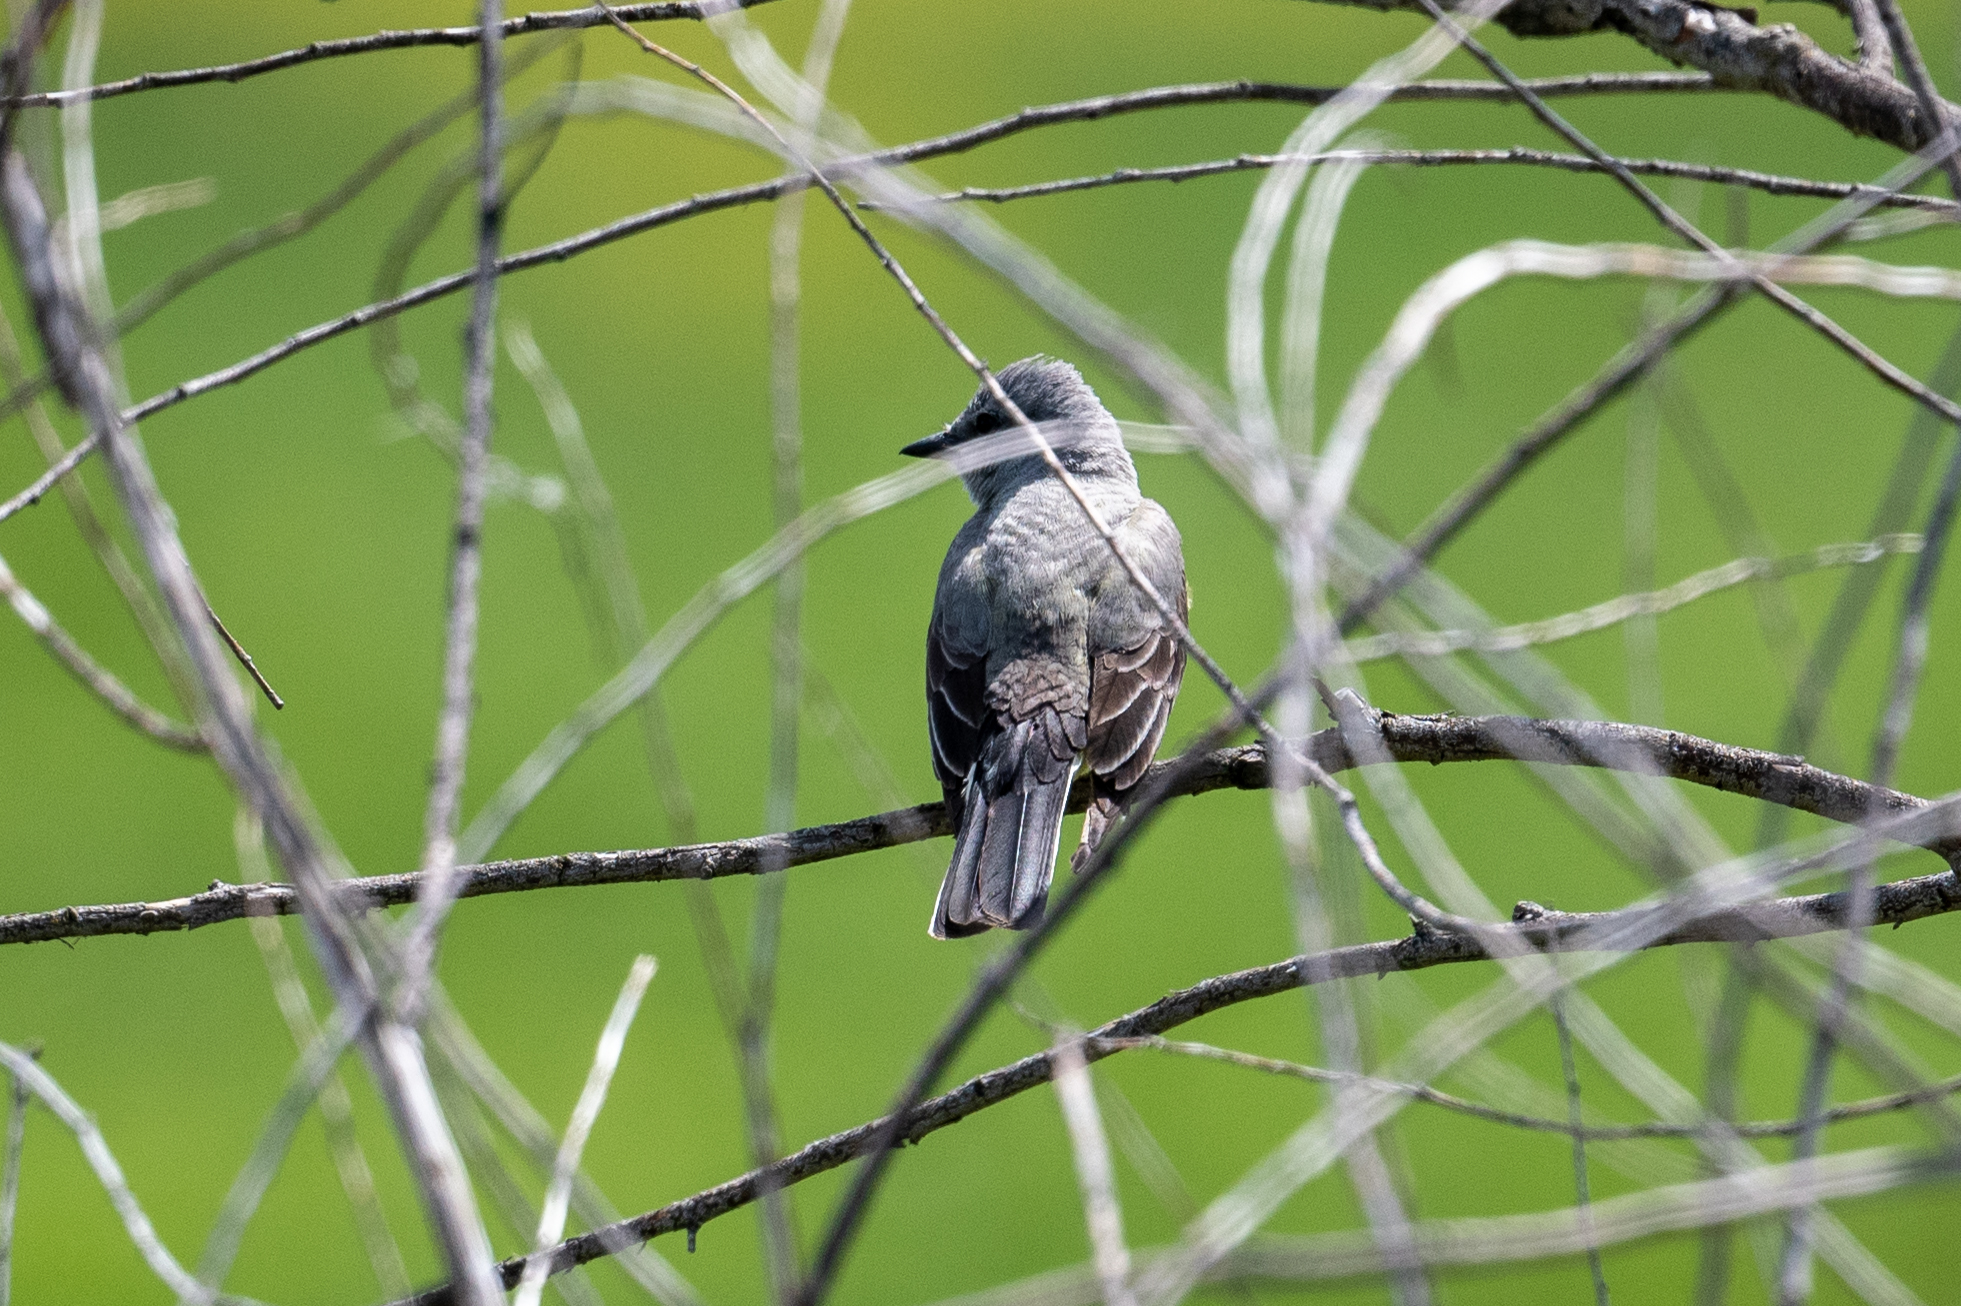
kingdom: Animalia
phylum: Chordata
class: Aves
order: Passeriformes
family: Tyrannidae
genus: Tyrannus
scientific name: Tyrannus verticalis
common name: Western kingbird
